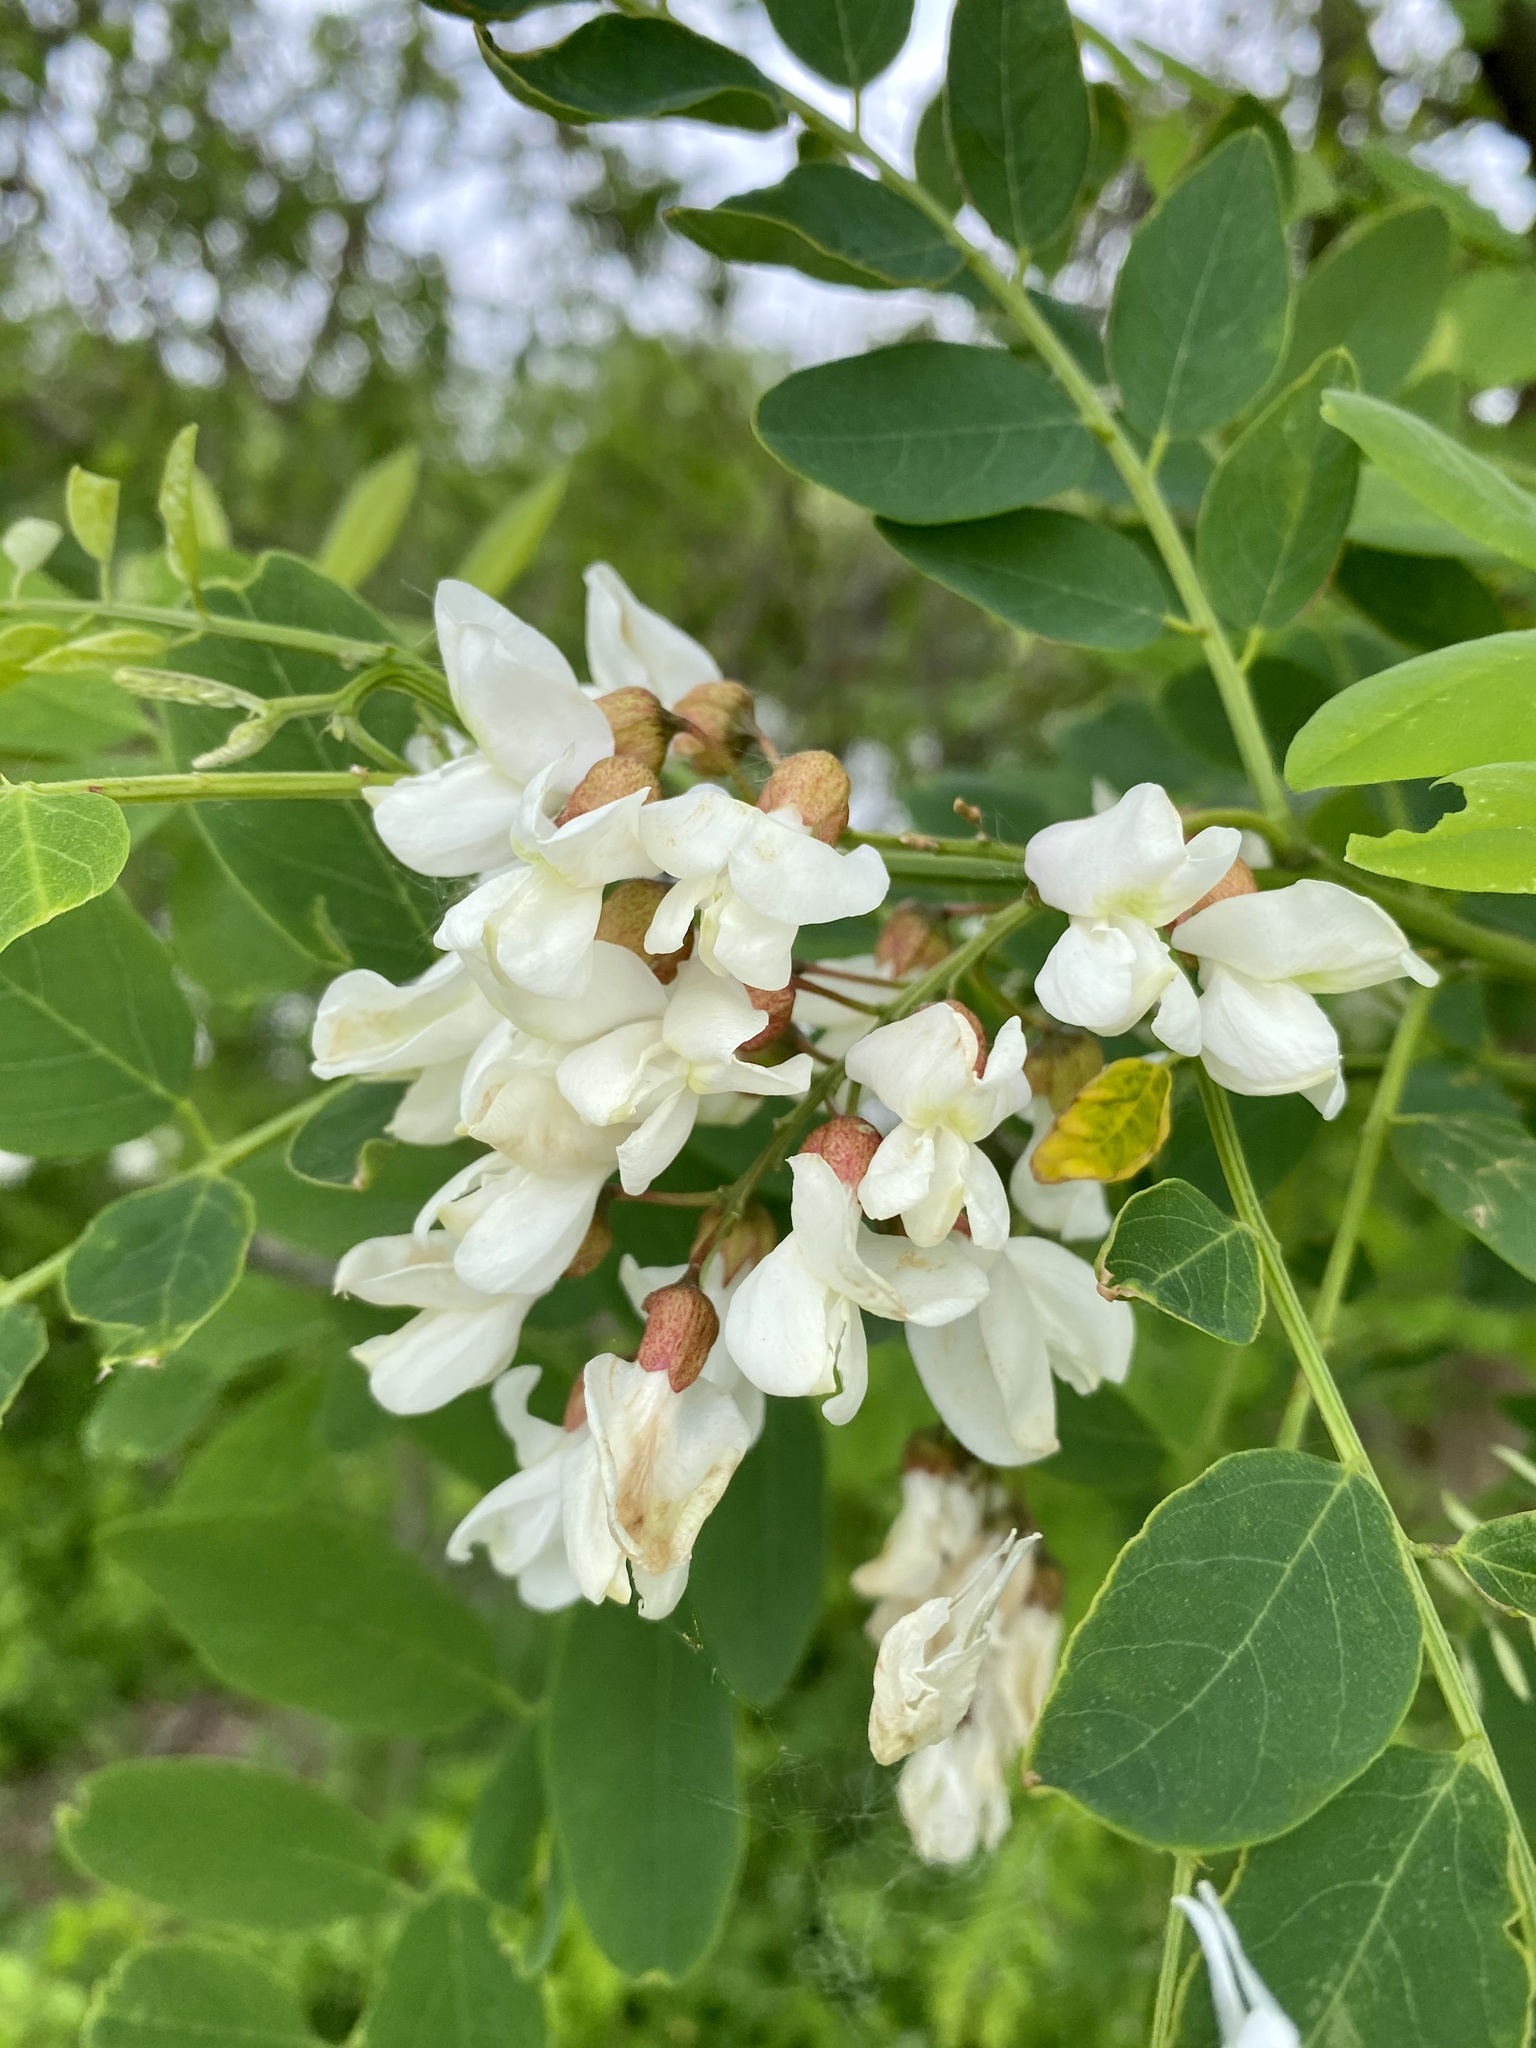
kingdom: Plantae
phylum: Tracheophyta
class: Magnoliopsida
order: Fabales
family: Fabaceae
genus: Robinia
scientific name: Robinia pseudoacacia
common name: Black locust
